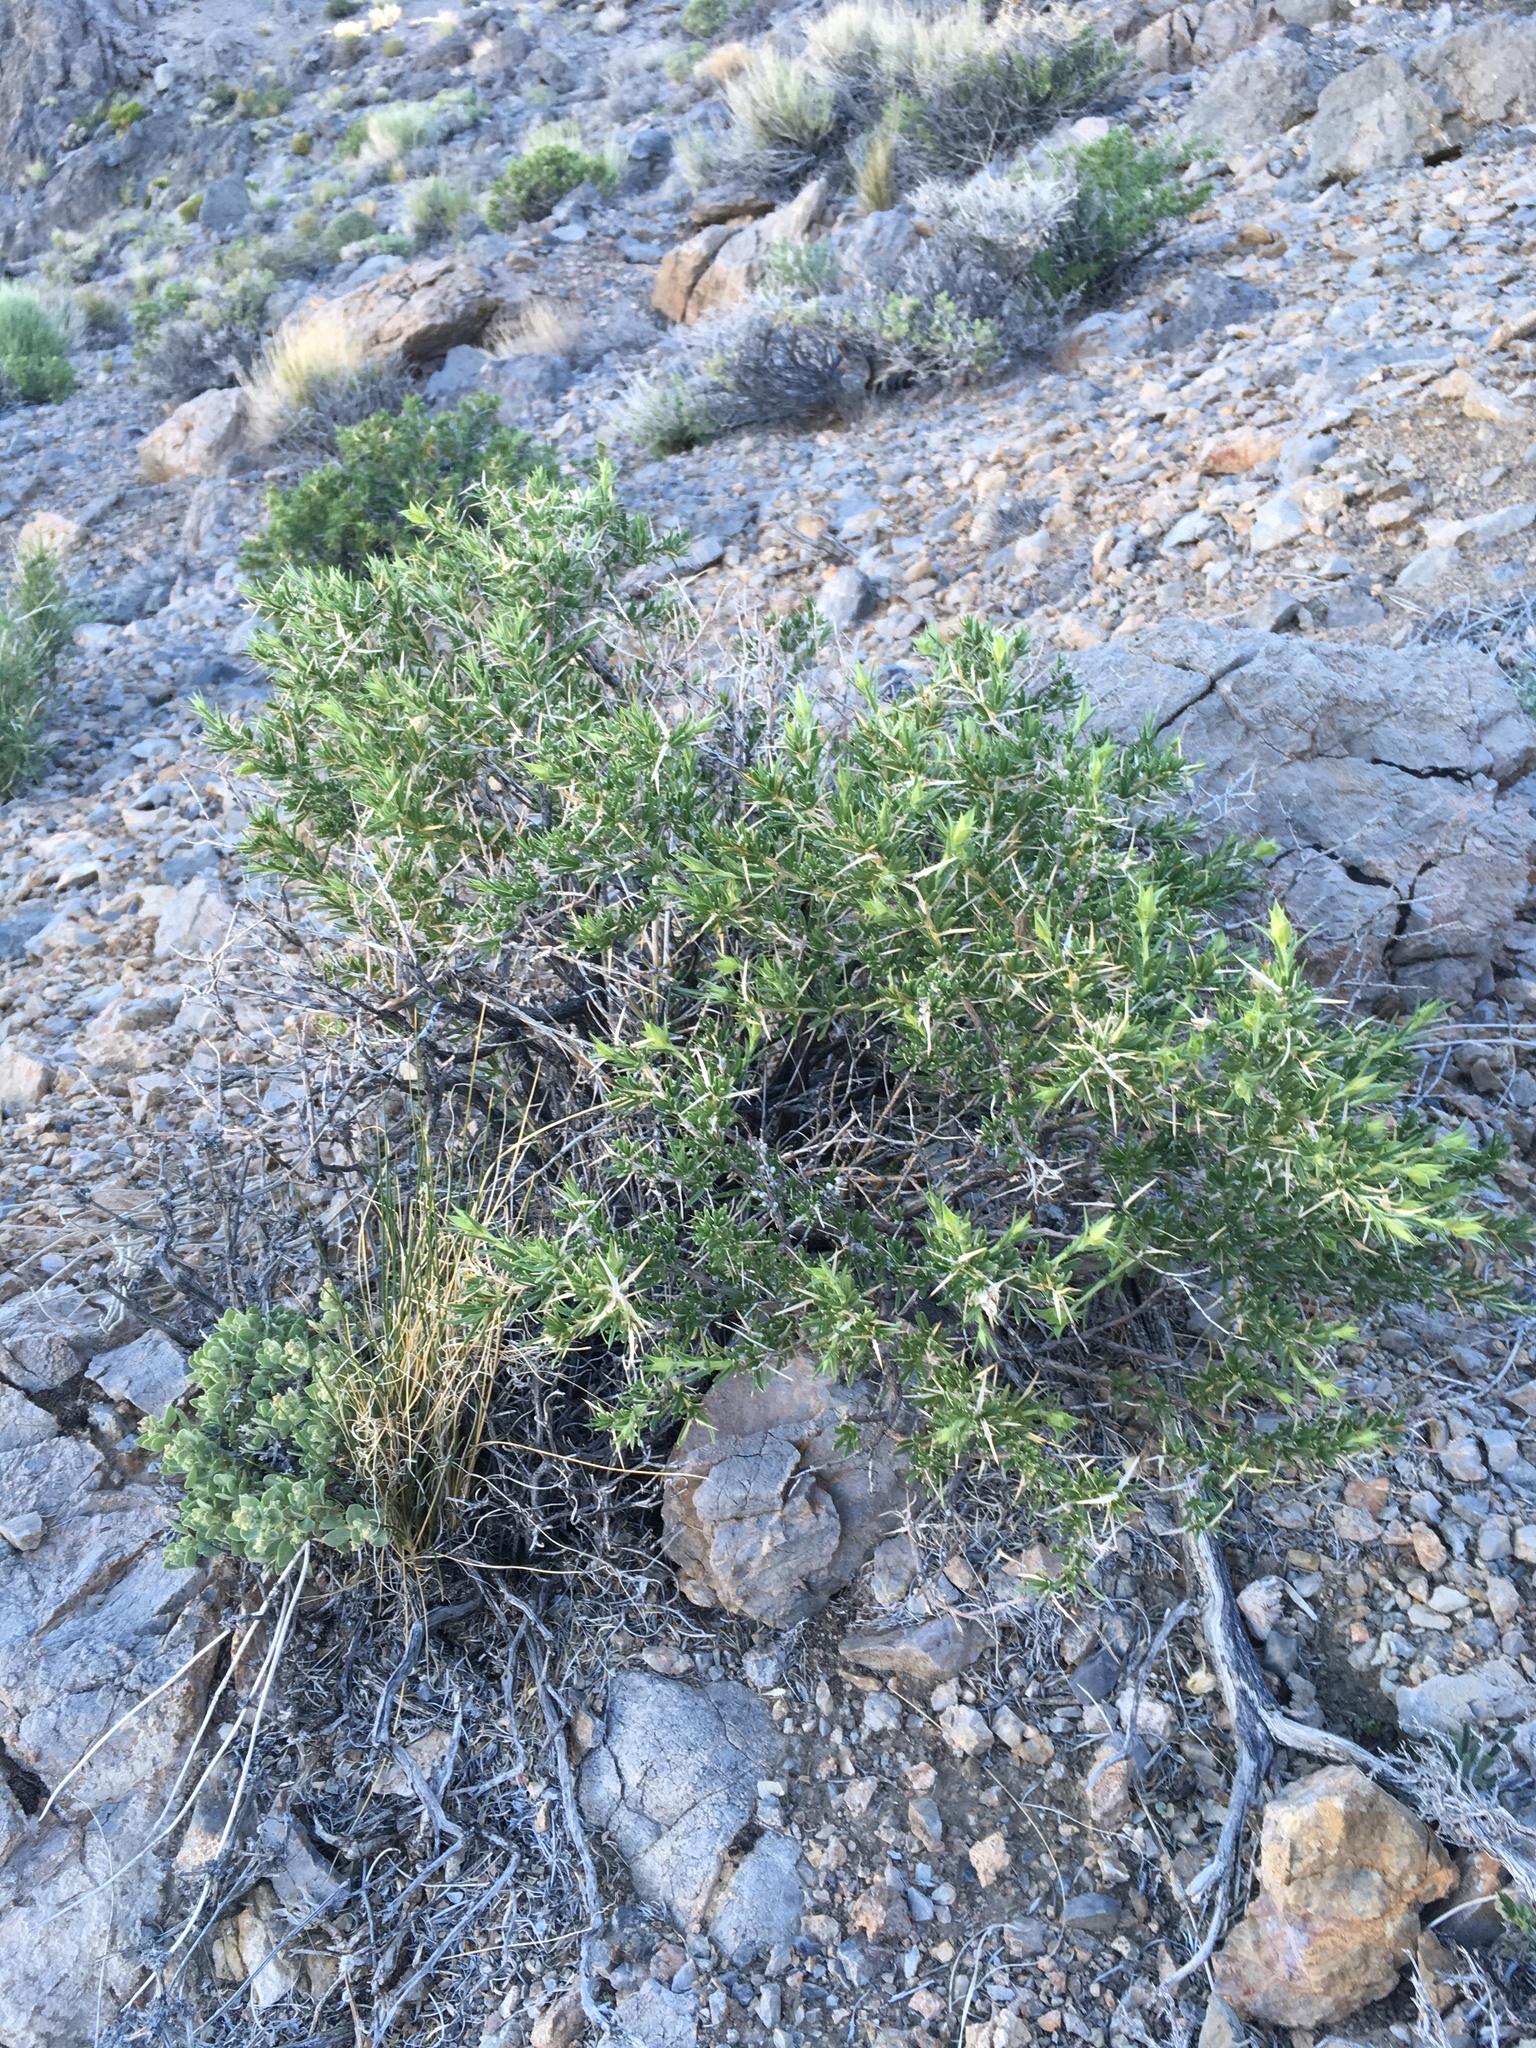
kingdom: Plantae
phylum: Tracheophyta
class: Magnoliopsida
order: Asterales
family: Asteraceae
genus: Hecastocleis
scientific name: Hecastocleis shockleyi
